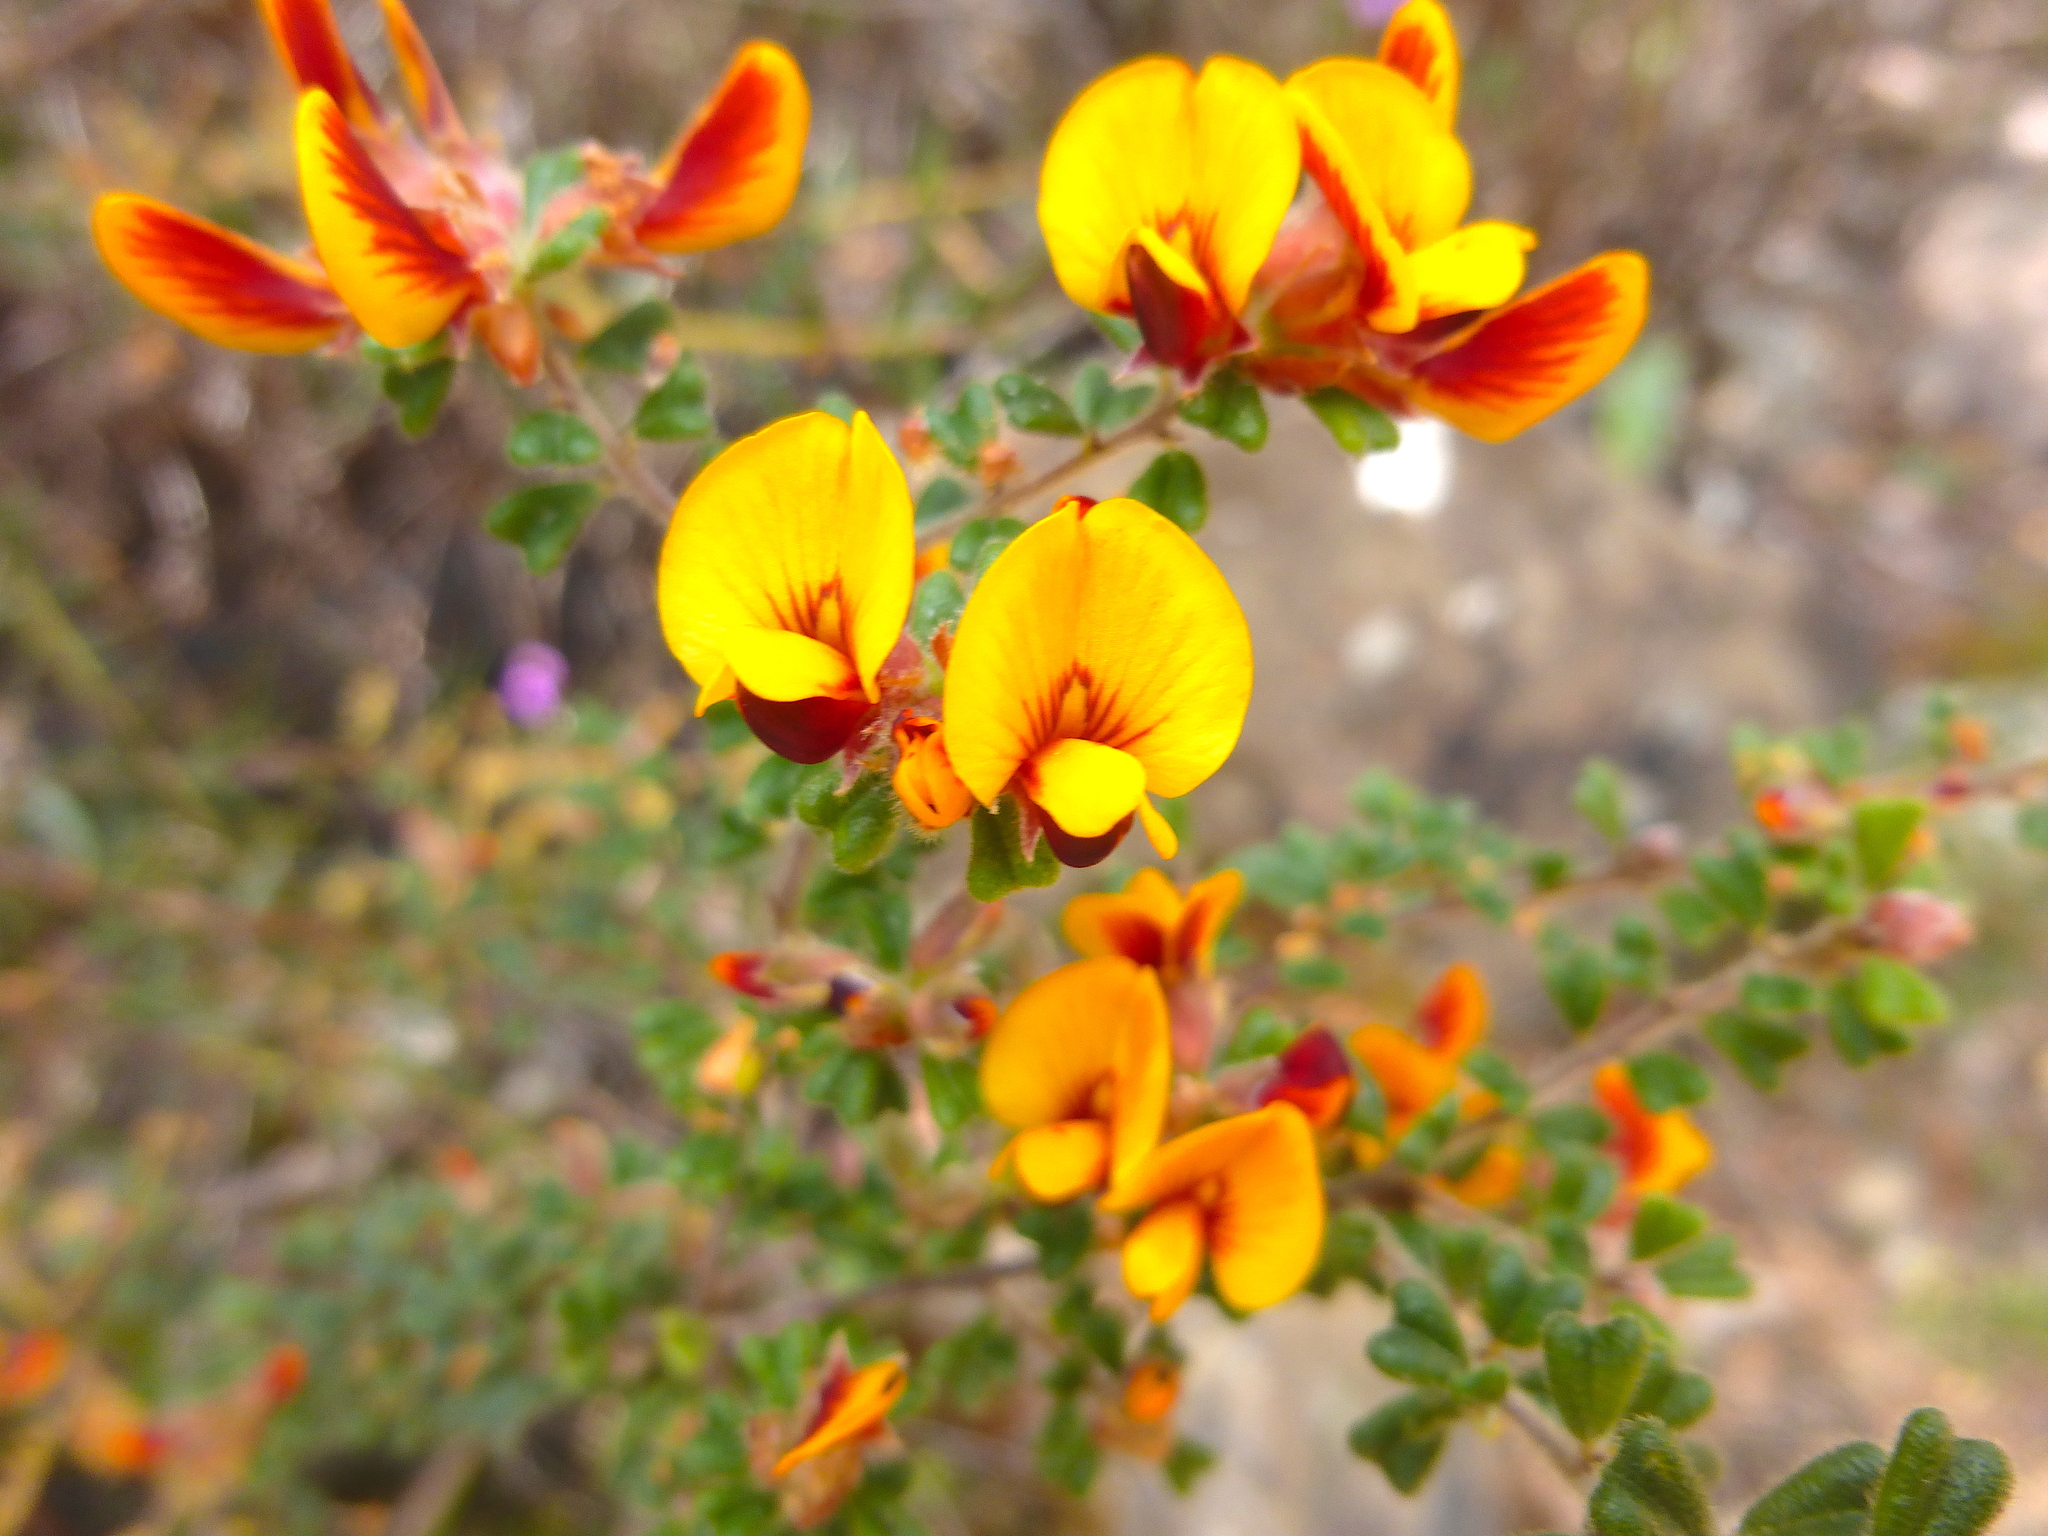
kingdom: Plantae
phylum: Tracheophyta
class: Magnoliopsida
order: Fabales
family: Fabaceae
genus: Pultenaea
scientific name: Pultenaea scabra
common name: Rough bush-pea
